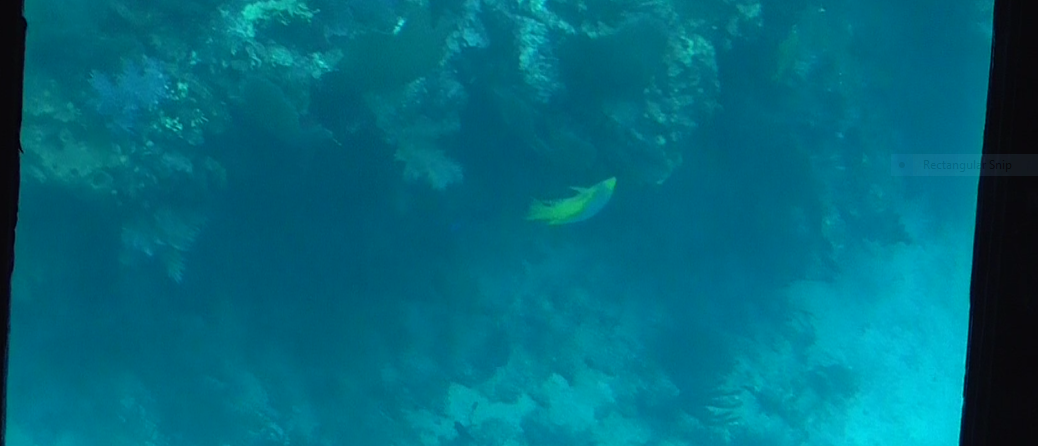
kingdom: Animalia
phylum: Chordata
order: Perciformes
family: Labridae
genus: Bodianus
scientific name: Bodianus rufus
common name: Spanish hogfish
